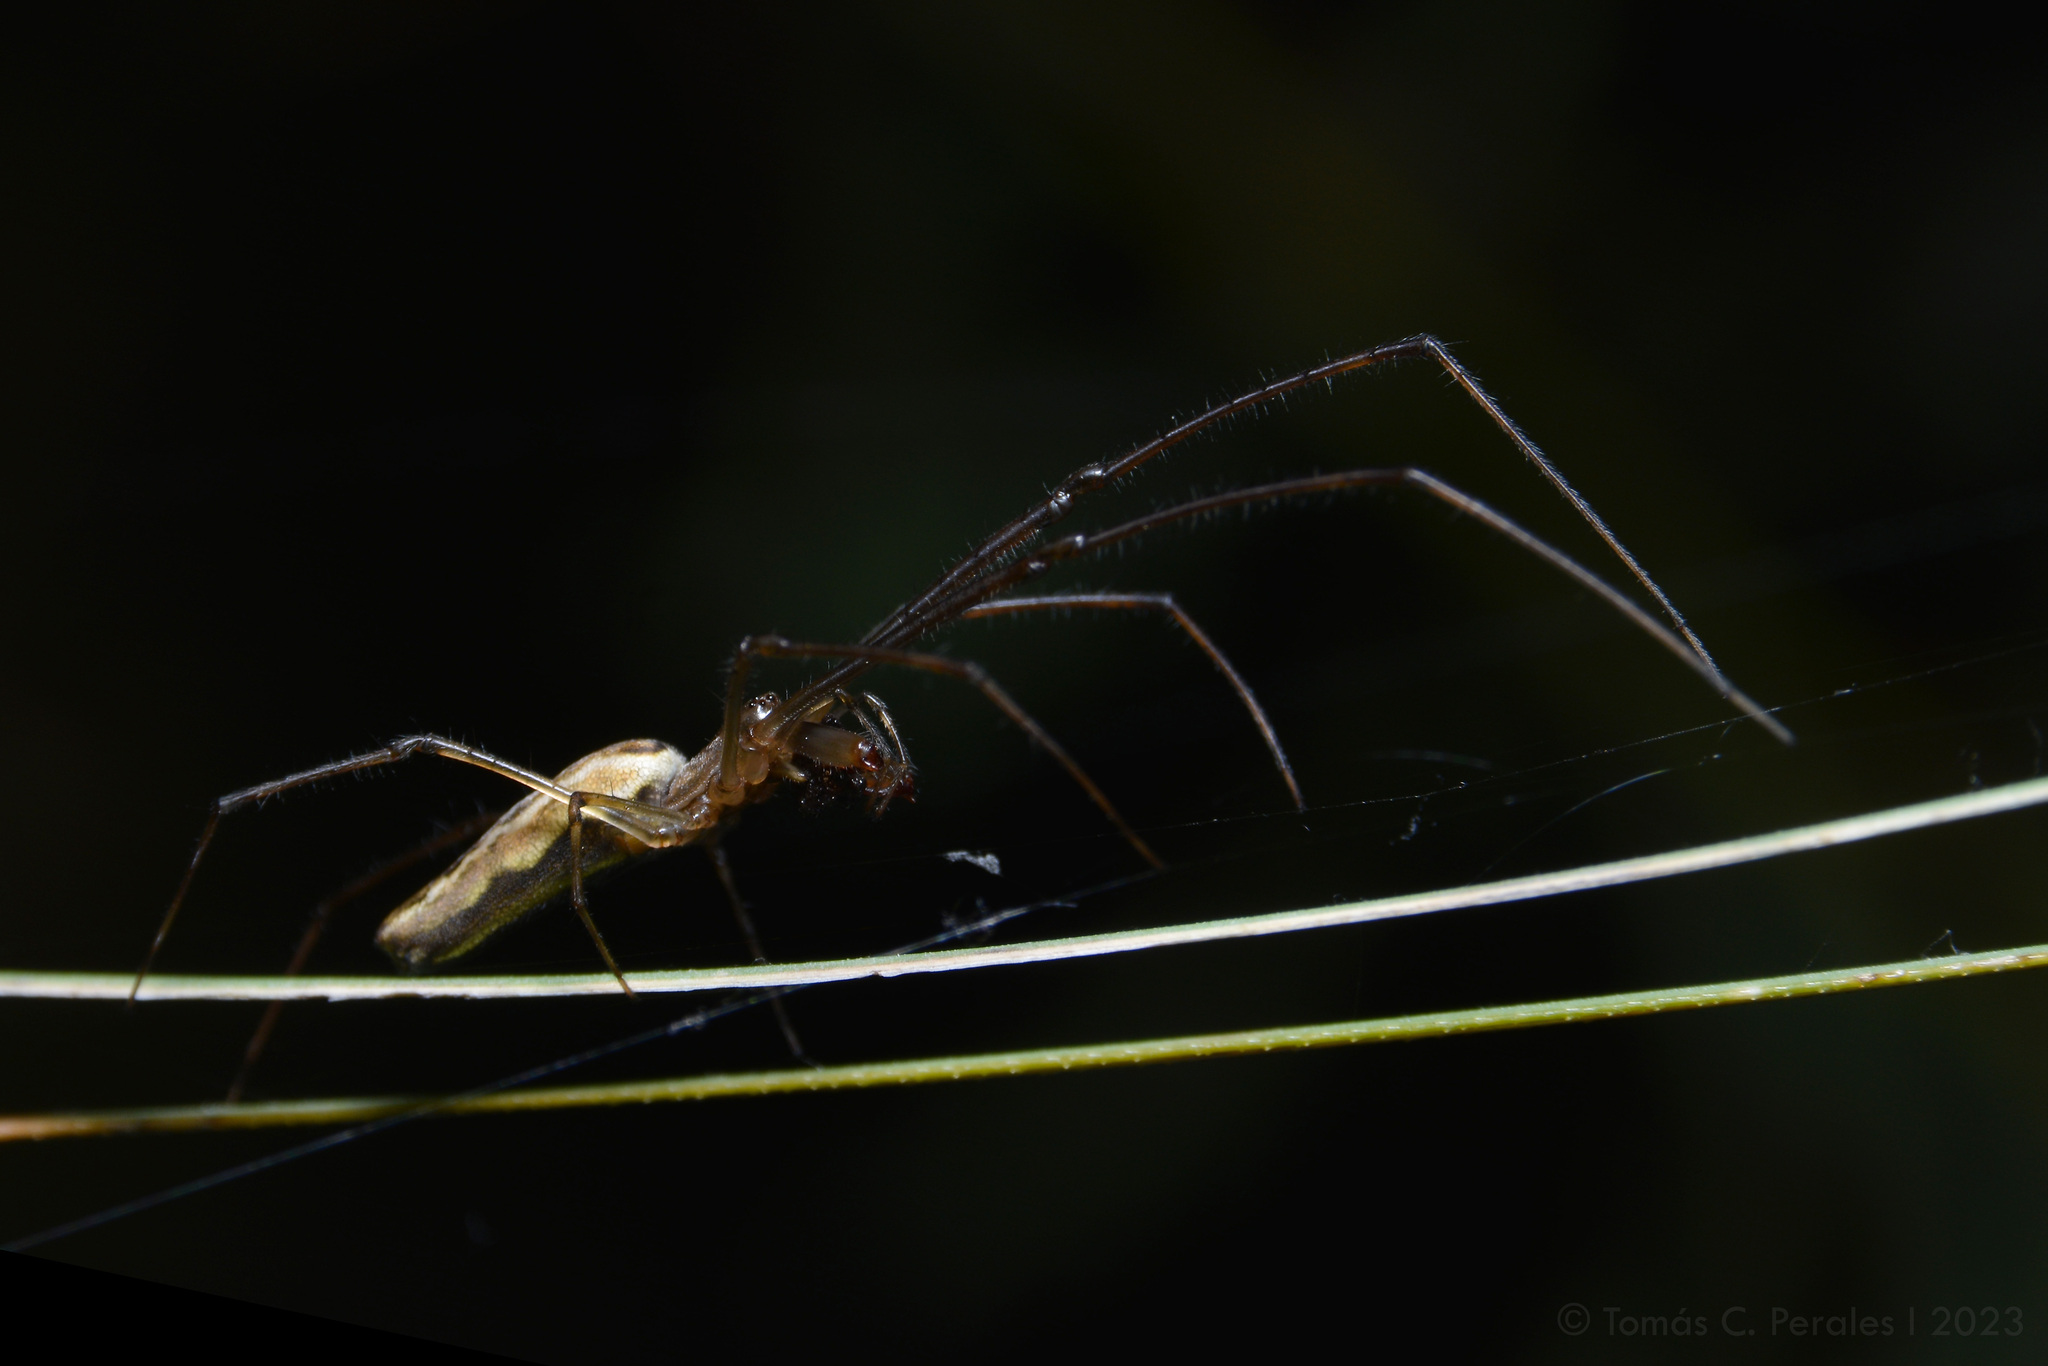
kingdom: Animalia
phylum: Arthropoda
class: Arachnida
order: Araneae
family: Tetragnathidae
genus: Tetragnatha
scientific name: Tetragnatha
